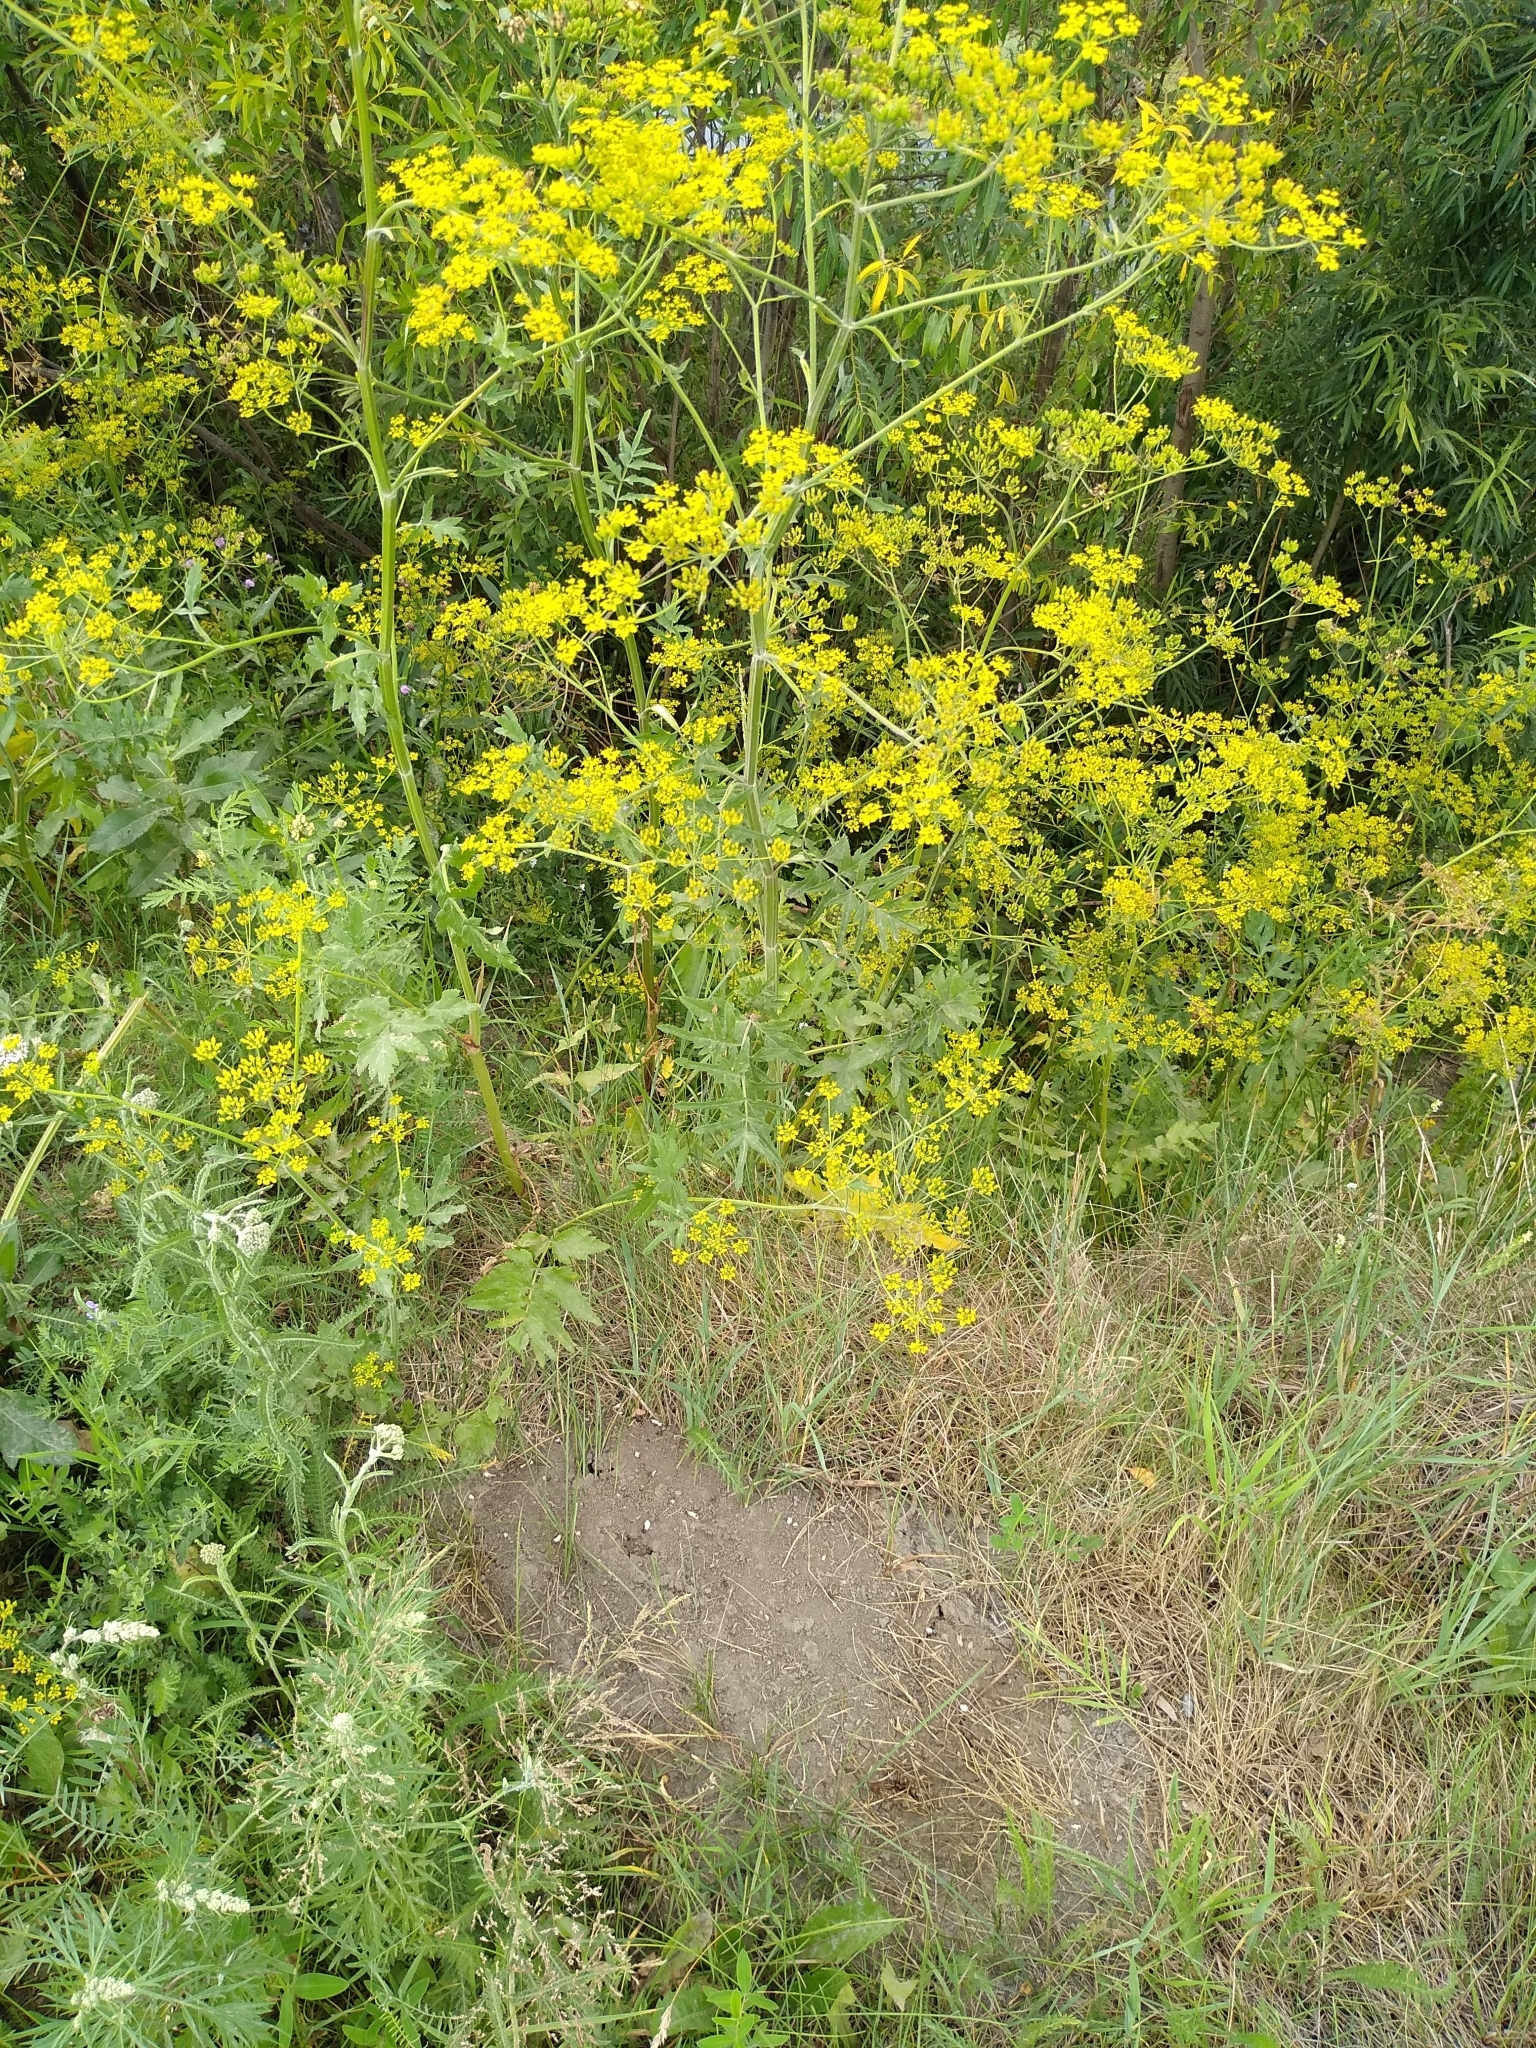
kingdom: Plantae
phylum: Tracheophyta
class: Magnoliopsida
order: Apiales
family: Apiaceae
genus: Pastinaca
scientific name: Pastinaca sativa
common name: Wild parsnip
